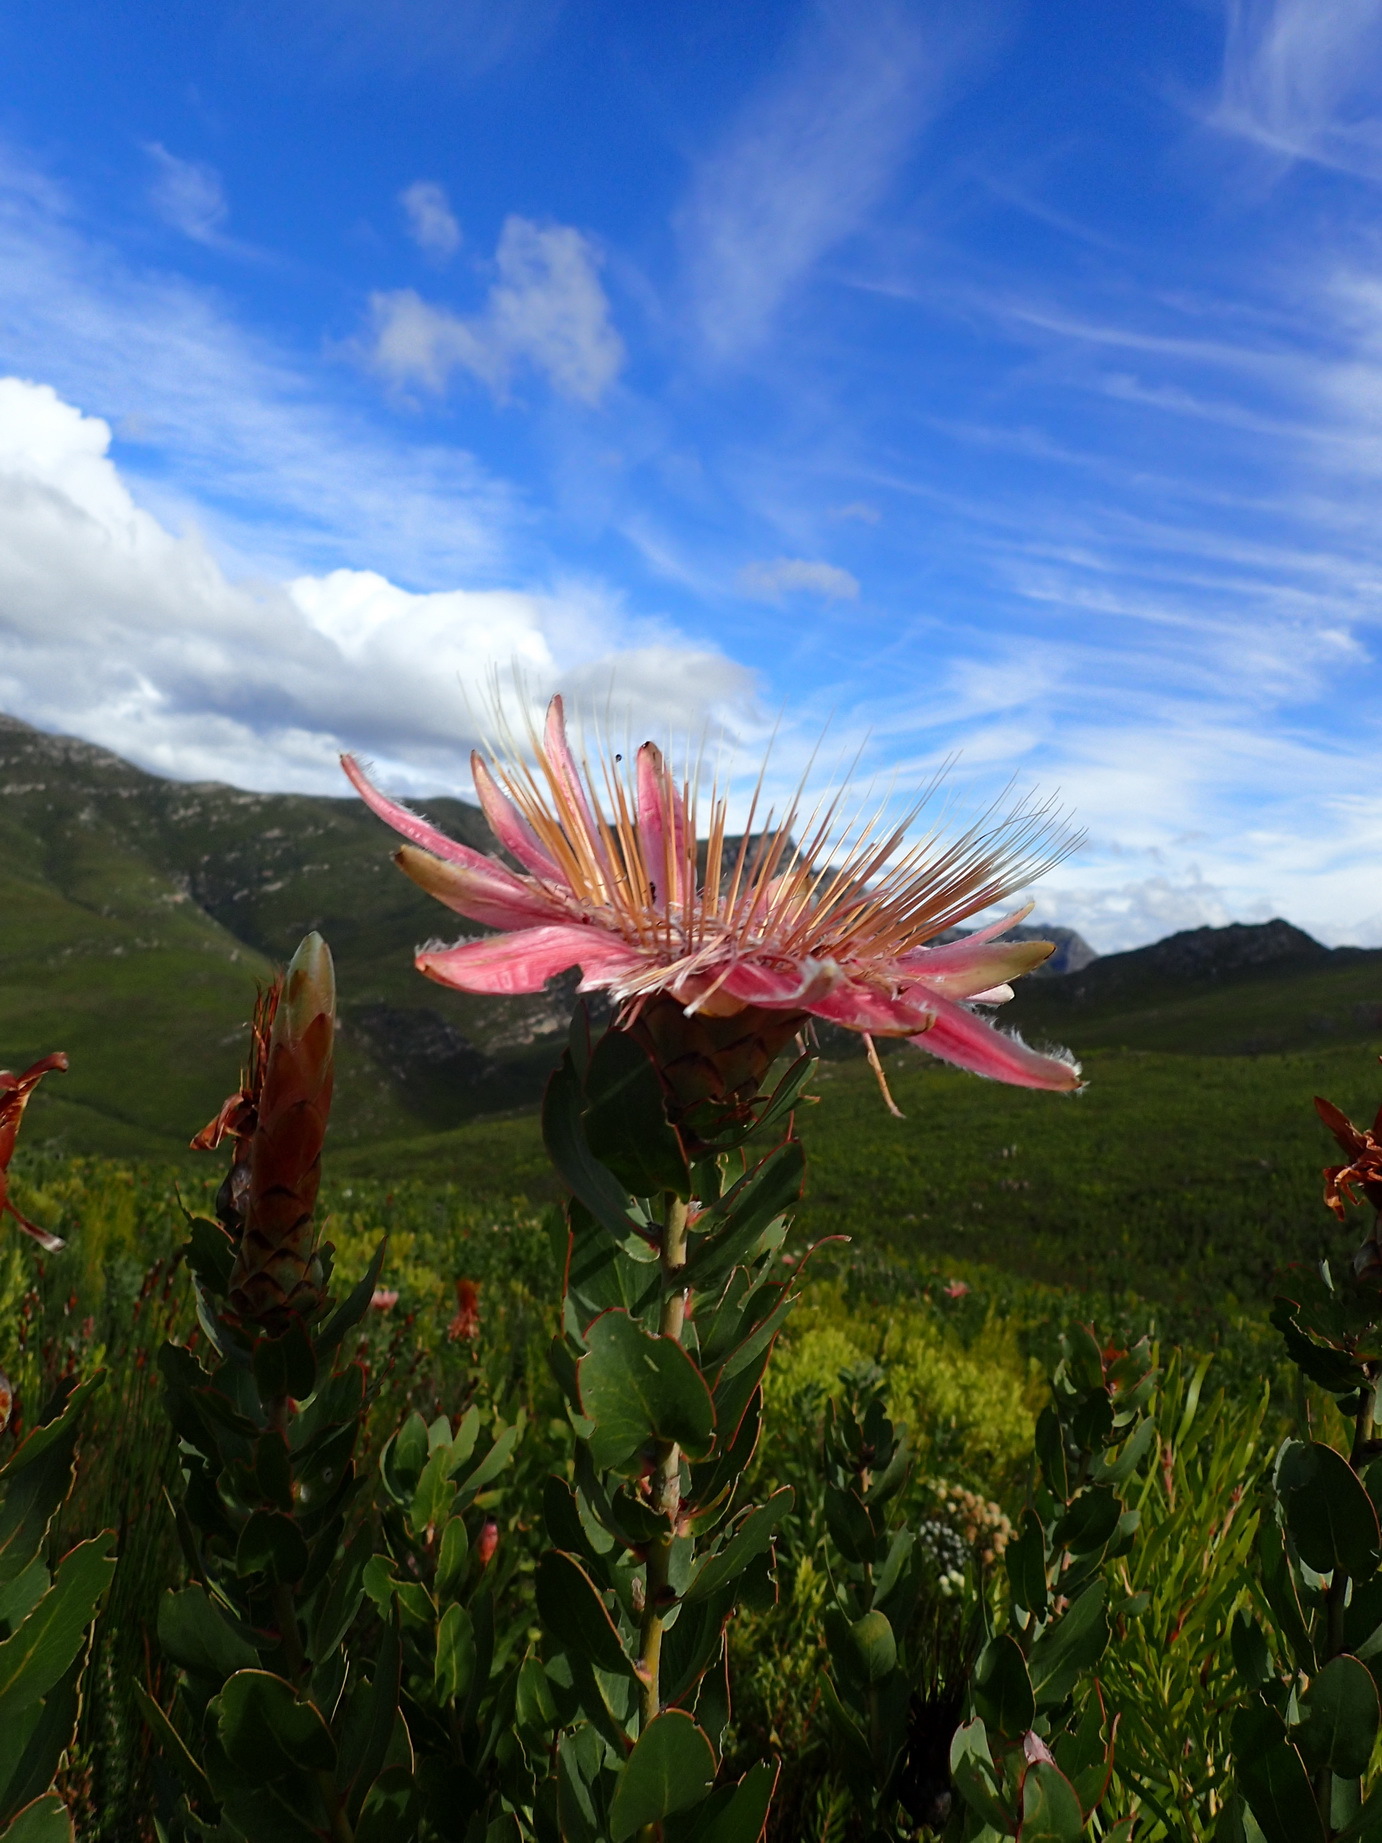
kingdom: Plantae
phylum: Tracheophyta
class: Magnoliopsida
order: Proteales
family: Proteaceae
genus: Protea
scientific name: Protea aurea
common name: Shuttlecock sugarbush
